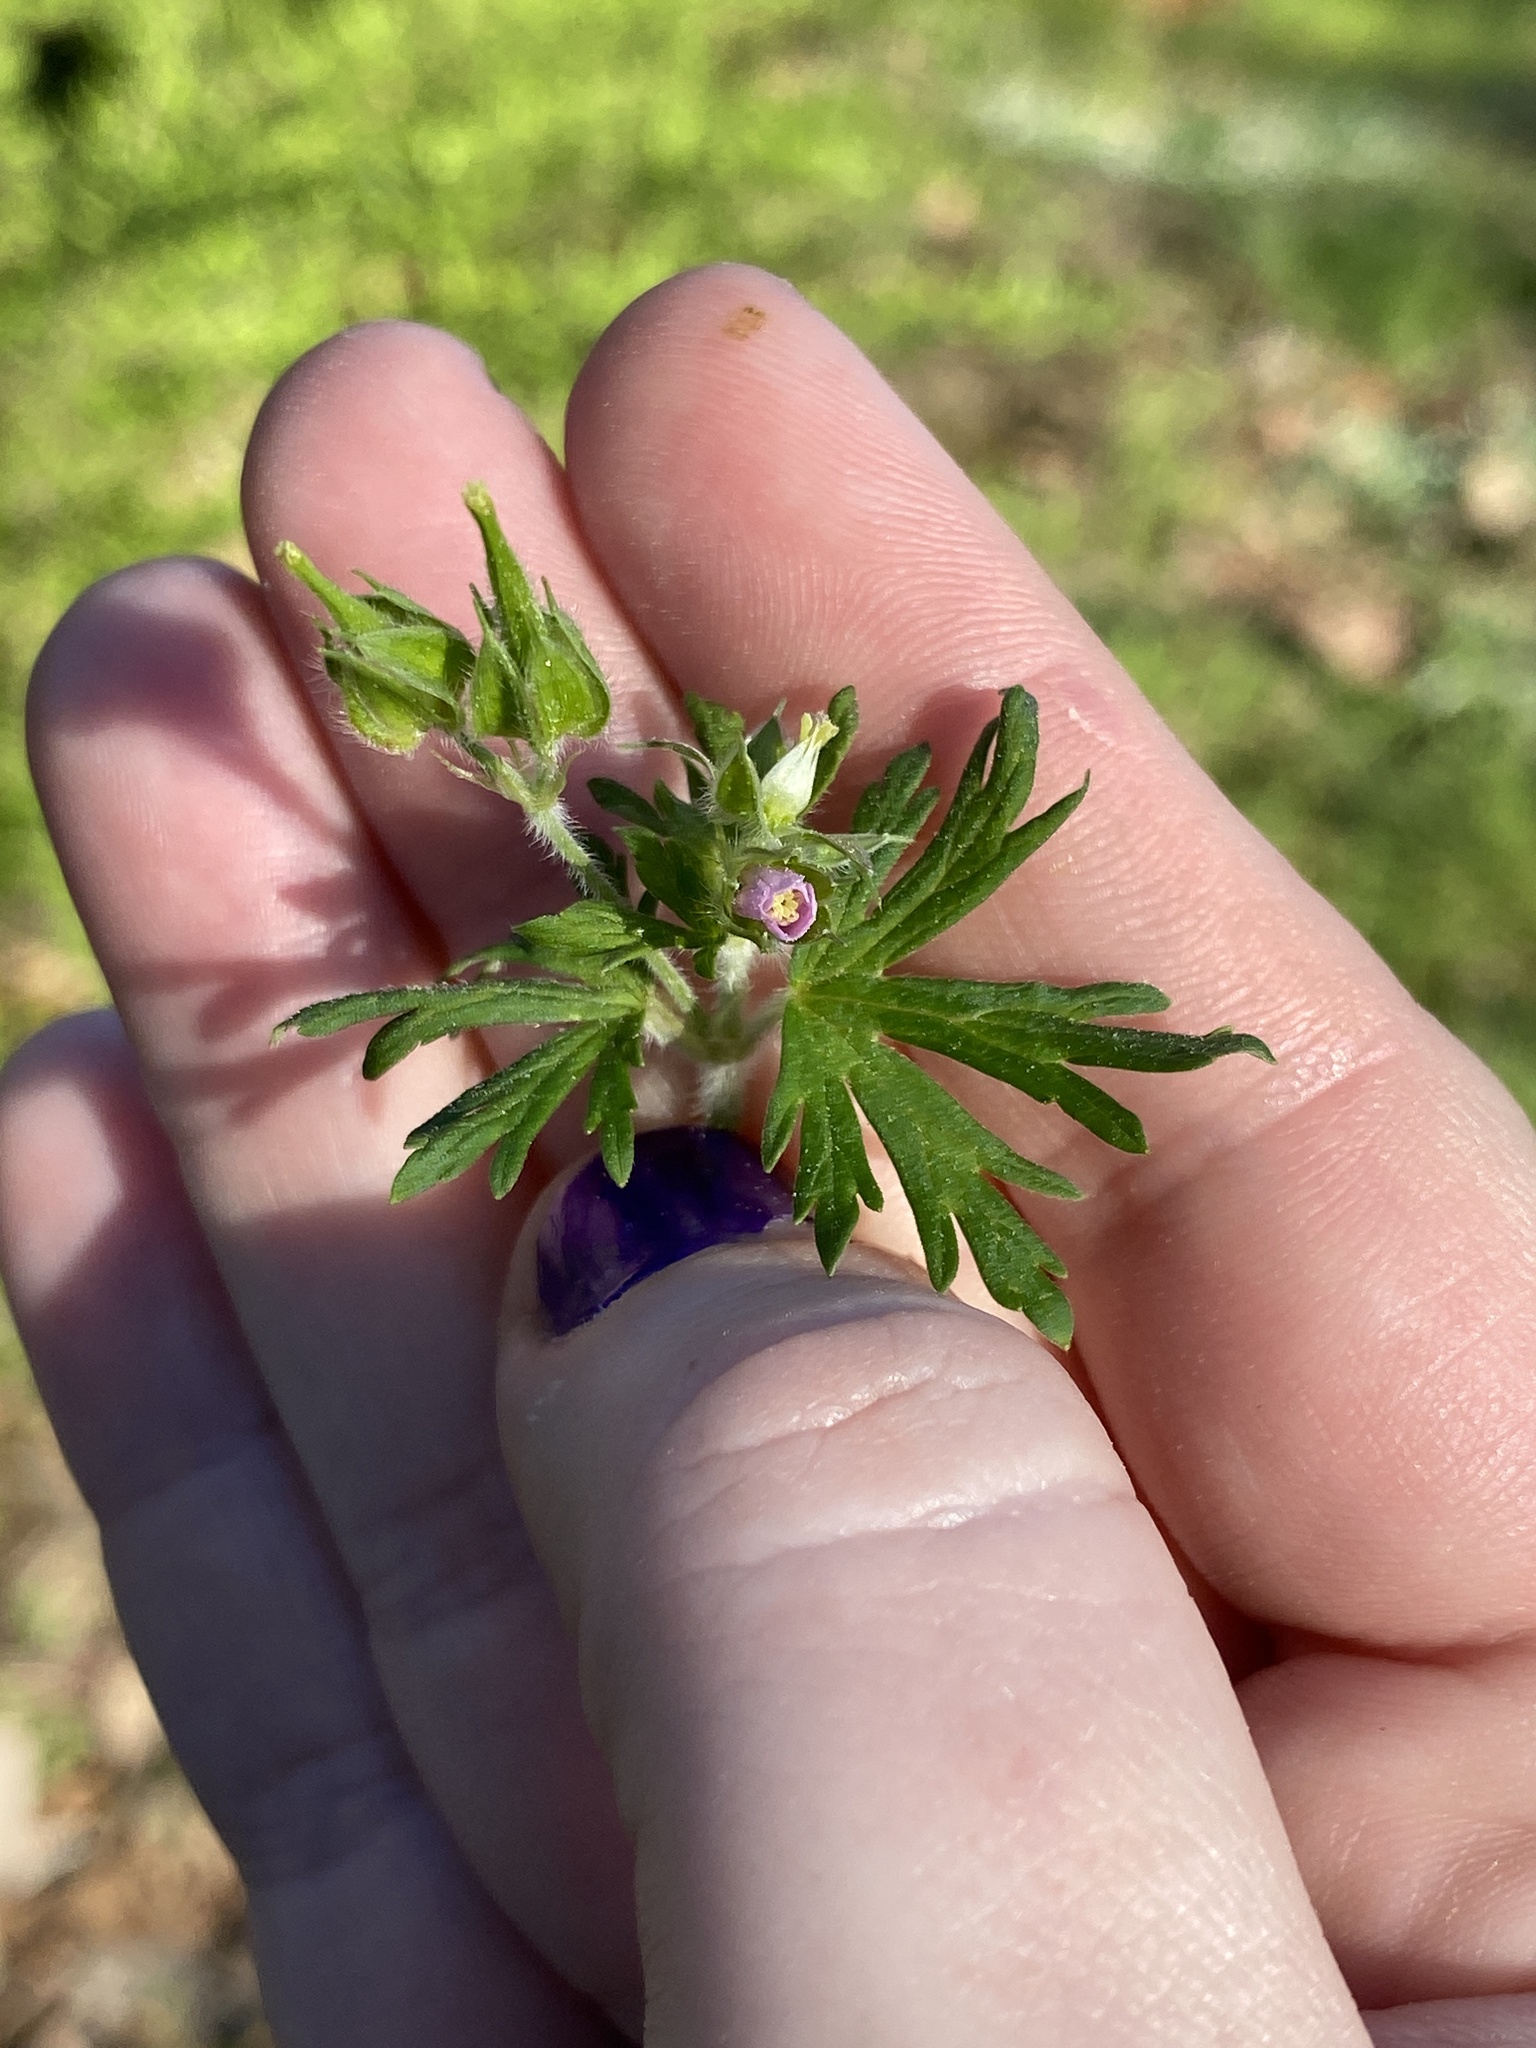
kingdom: Plantae
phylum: Tracheophyta
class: Magnoliopsida
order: Geraniales
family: Geraniaceae
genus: Geranium
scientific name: Geranium carolinianum
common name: Carolina crane's-bill
